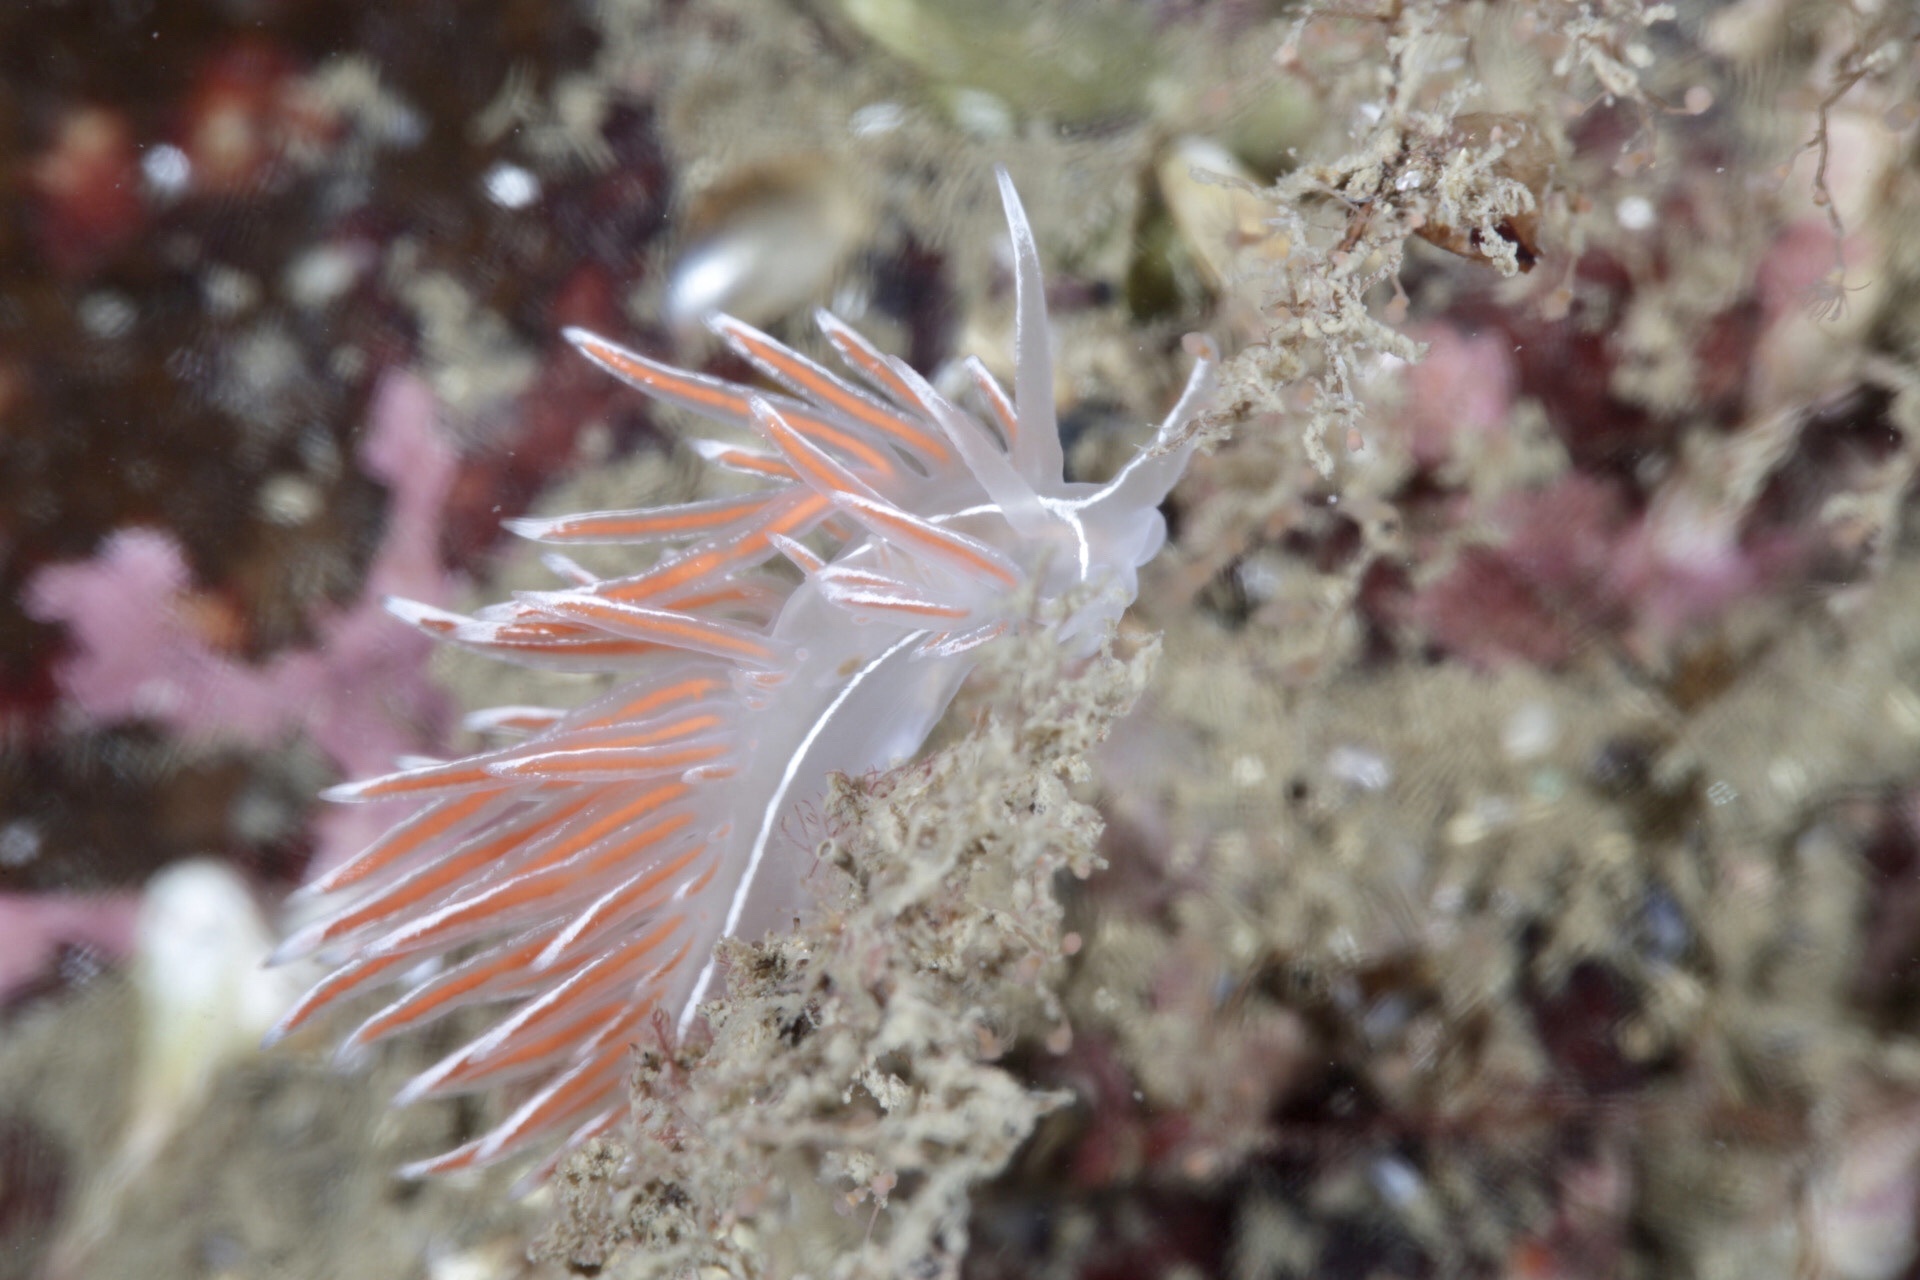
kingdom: Animalia
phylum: Mollusca
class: Gastropoda
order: Nudibranchia
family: Coryphellidae
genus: Coryphella
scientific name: Coryphella lineata
